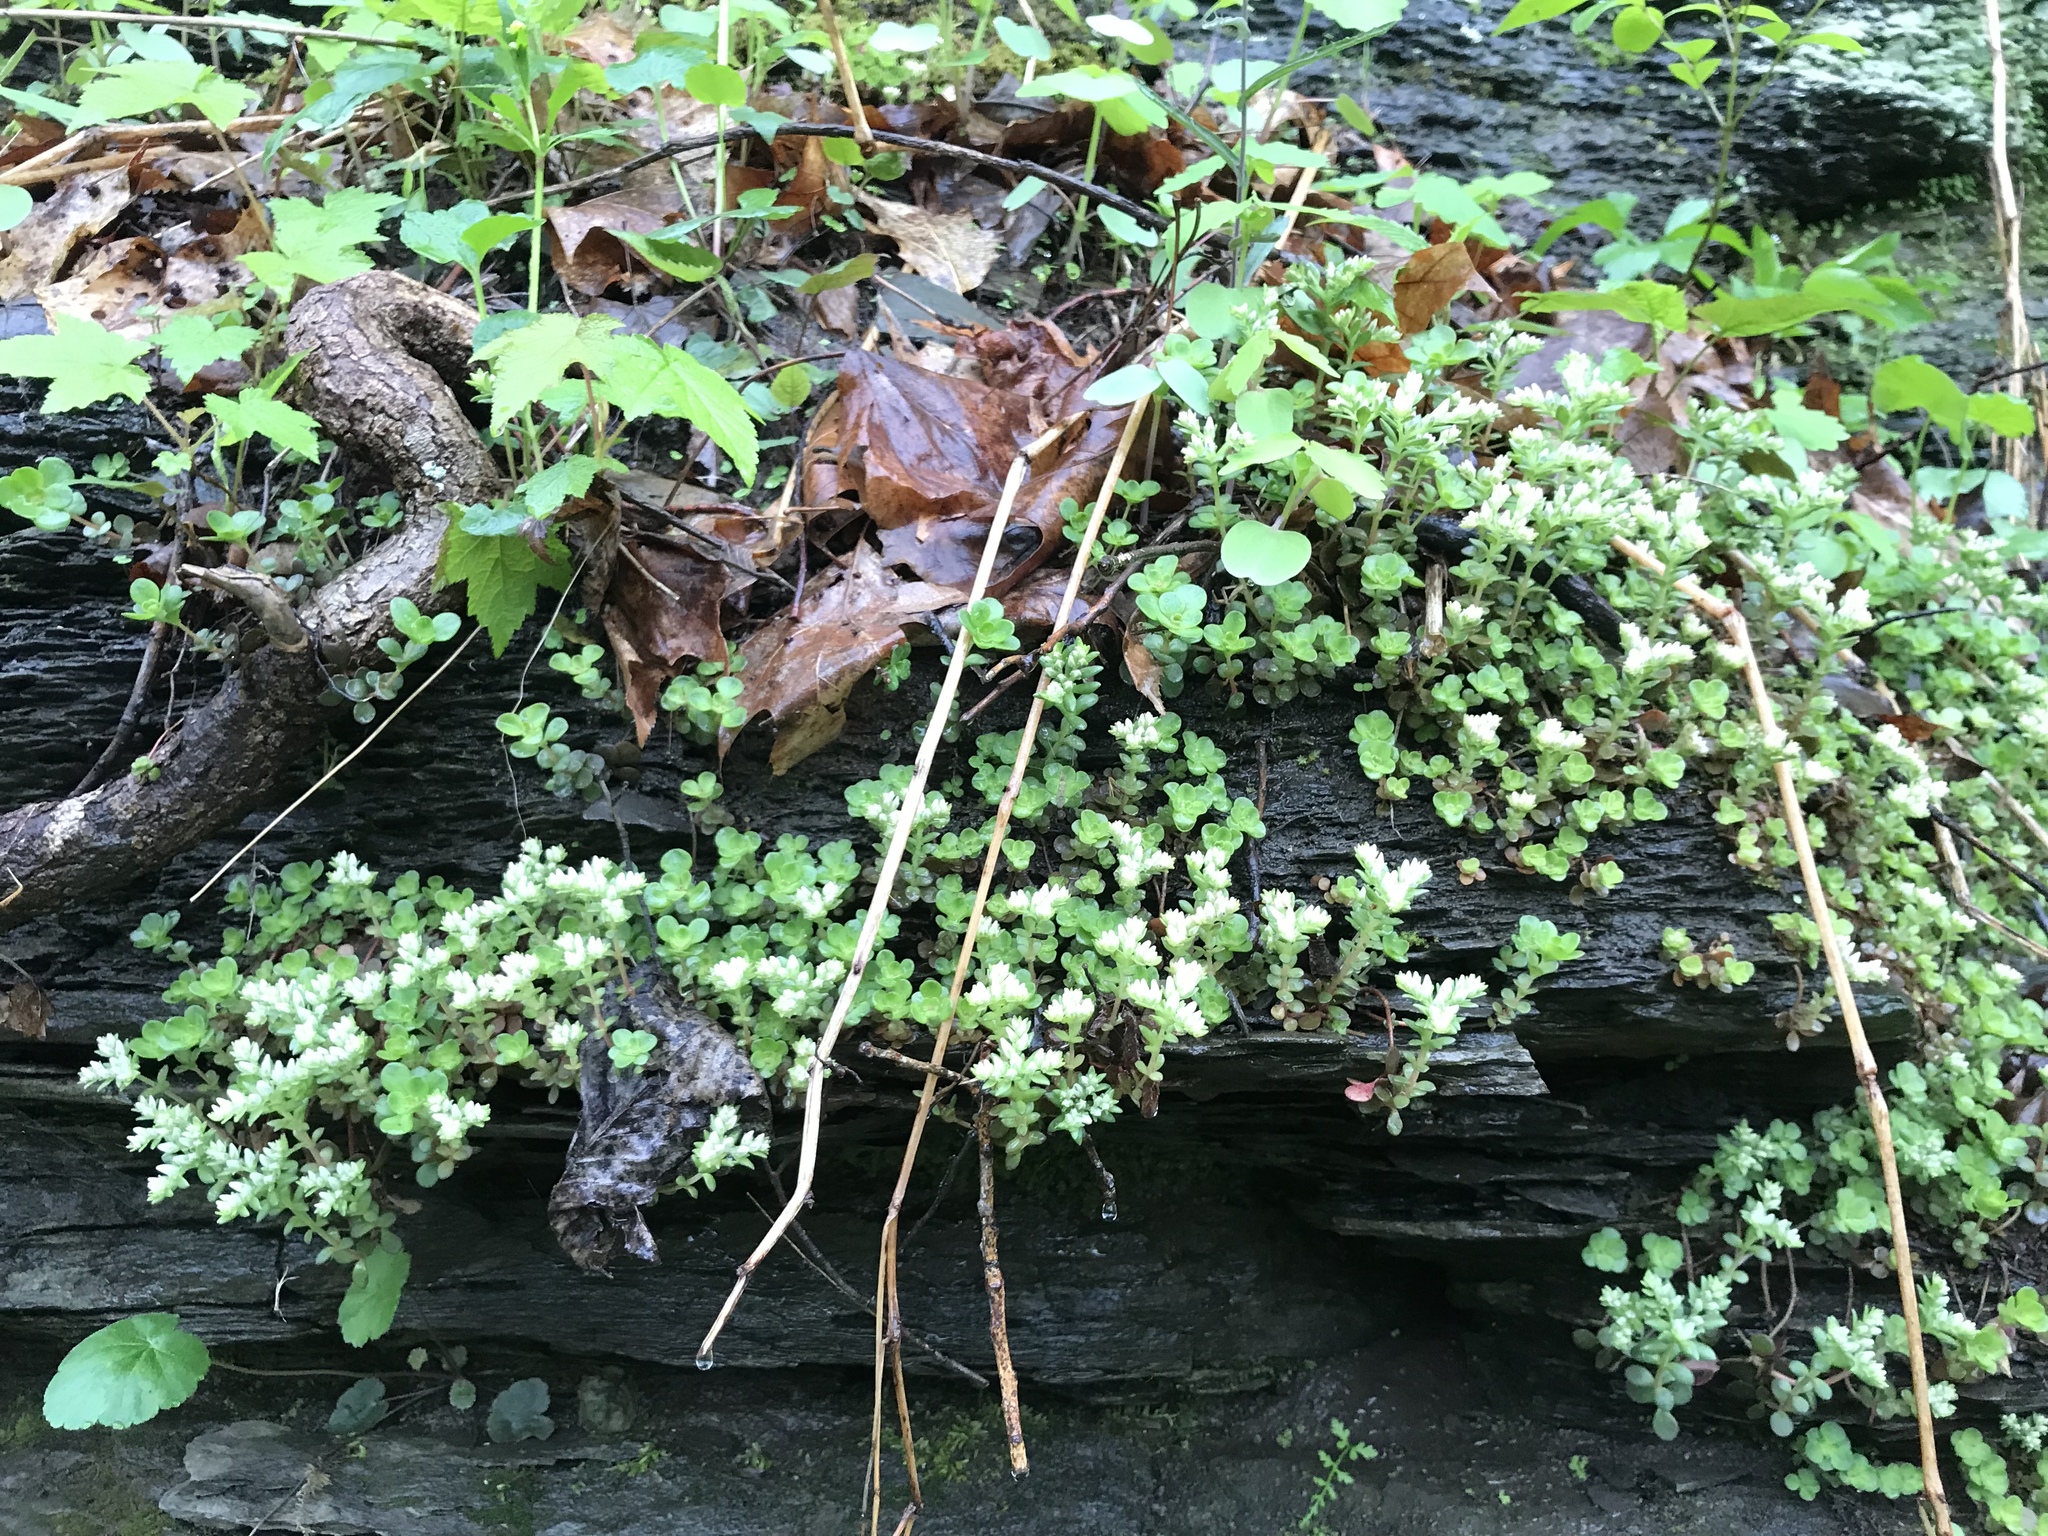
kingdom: Plantae
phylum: Tracheophyta
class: Magnoliopsida
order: Saxifragales
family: Crassulaceae
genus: Sedum
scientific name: Sedum ternatum
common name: Wild stonecrop
